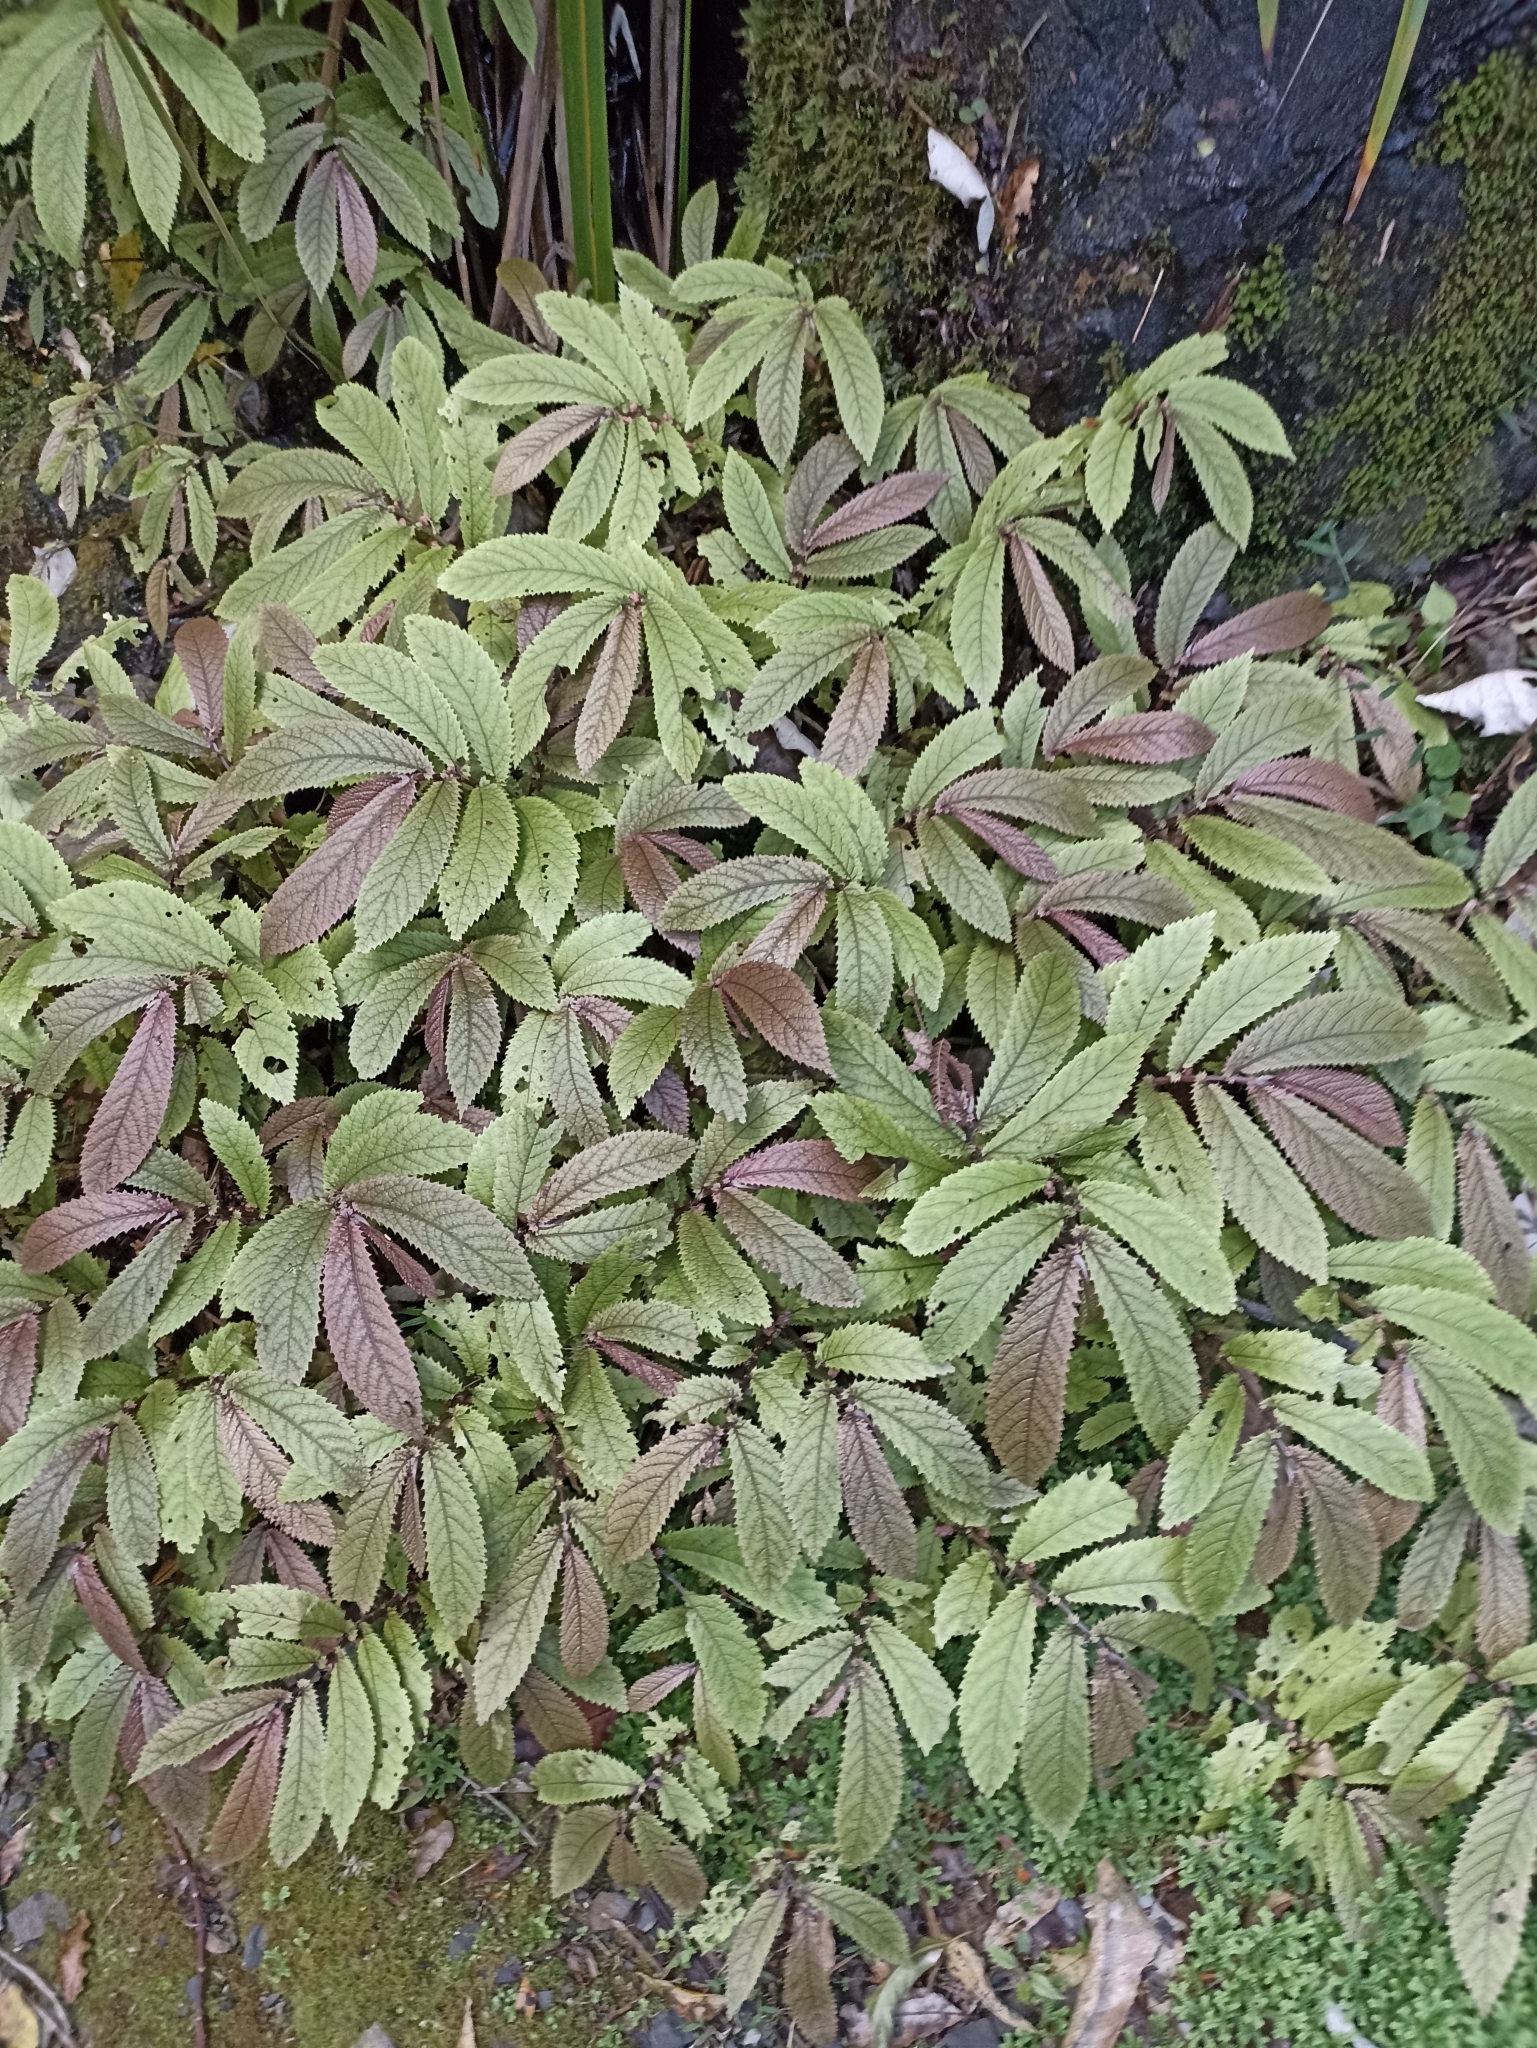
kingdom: Plantae
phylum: Tracheophyta
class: Magnoliopsida
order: Rosales
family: Urticaceae
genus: Elatostema
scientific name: Elatostema rugosum
